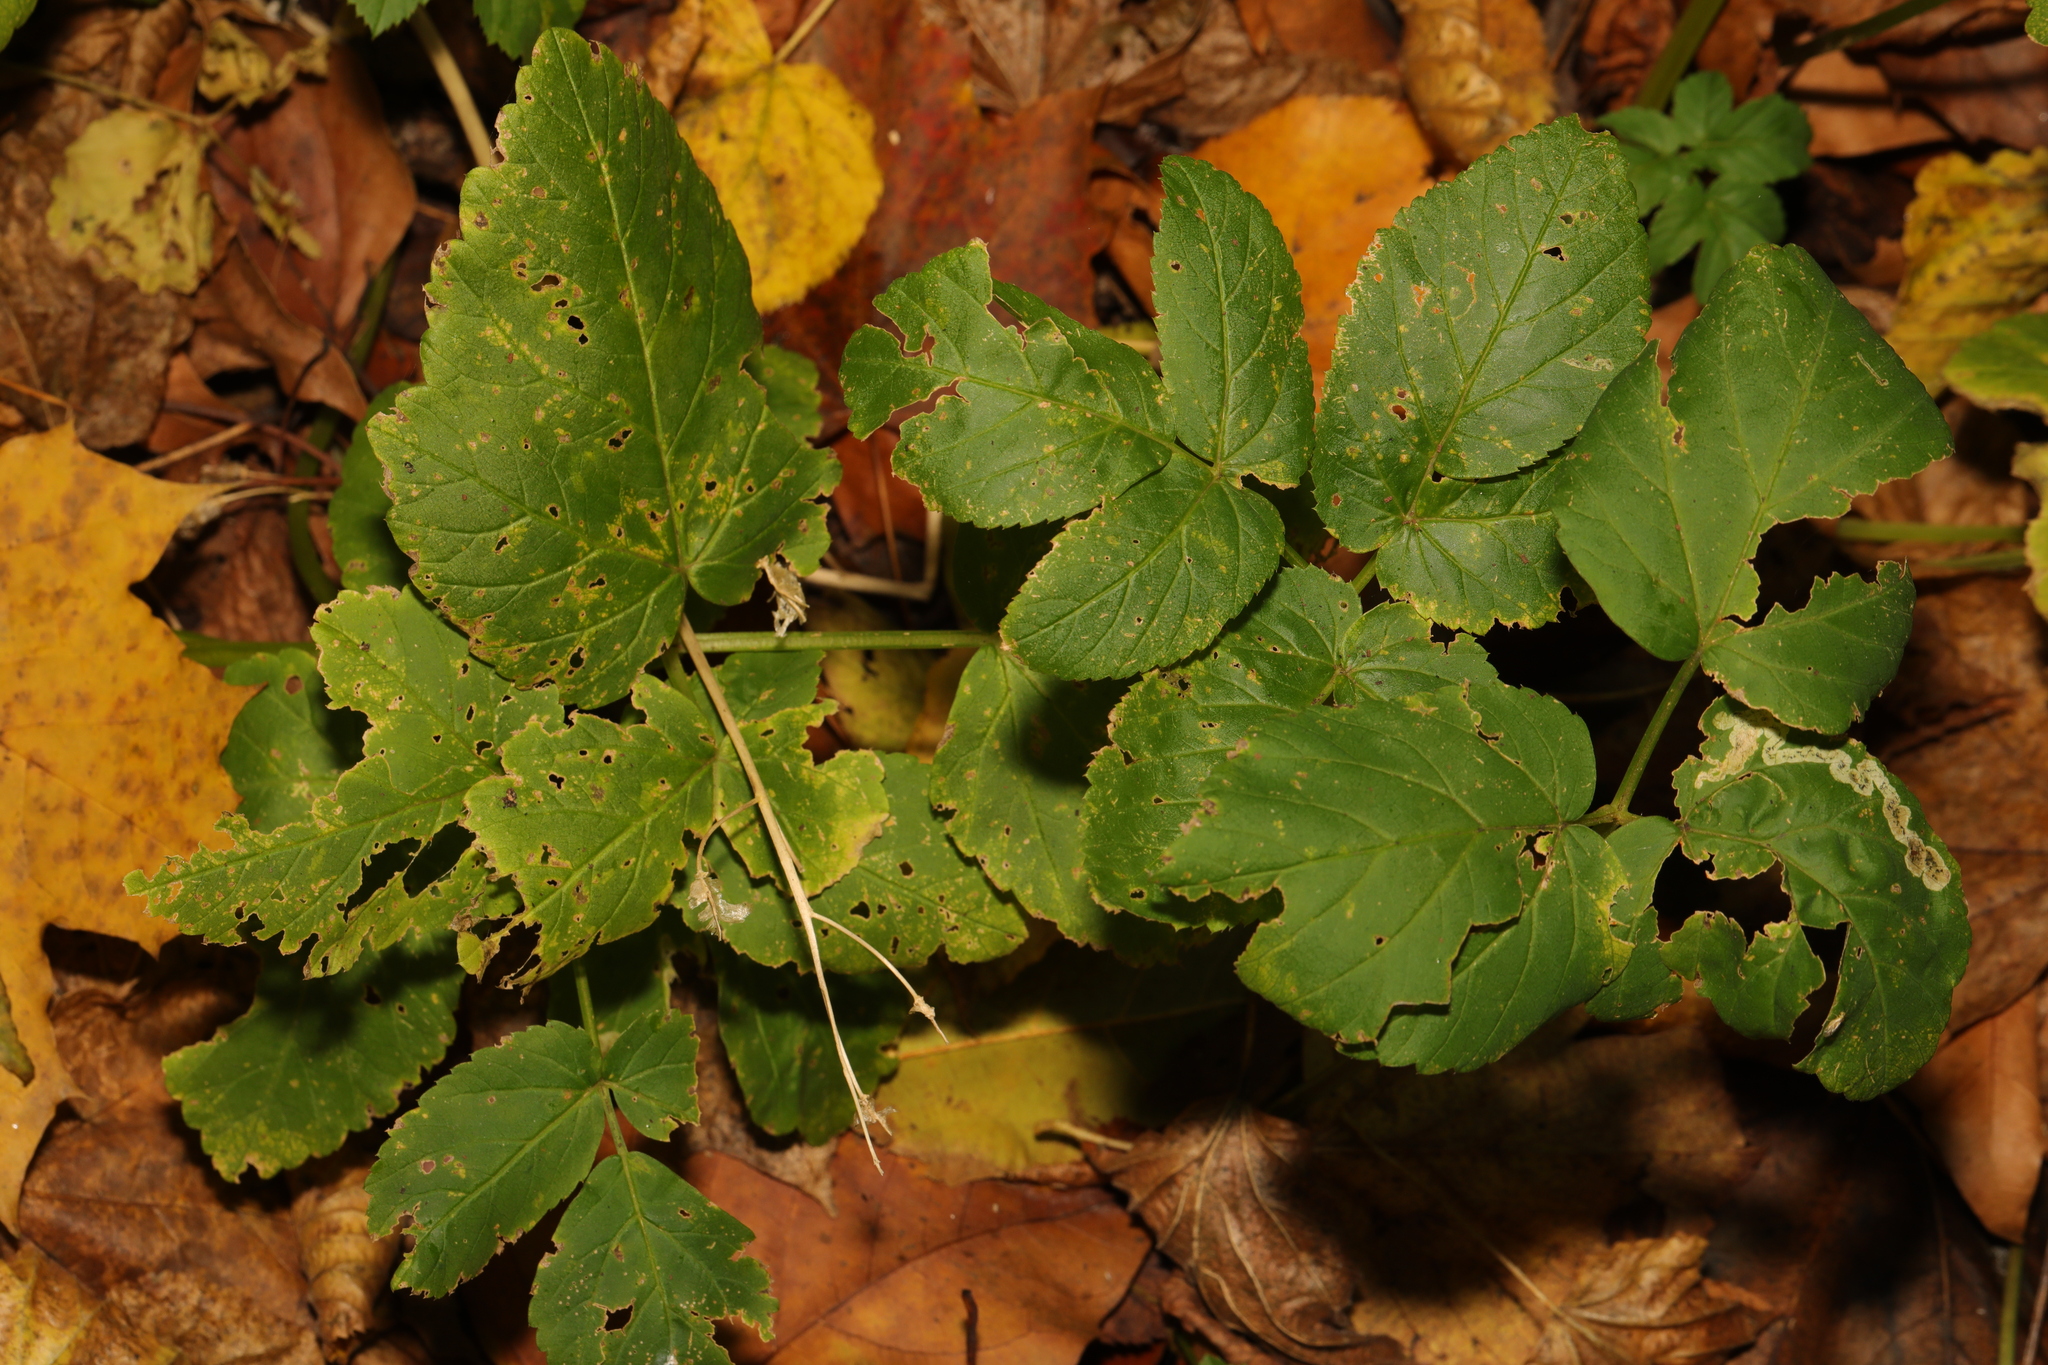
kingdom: Plantae
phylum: Tracheophyta
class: Magnoliopsida
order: Apiales
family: Apiaceae
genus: Aegopodium
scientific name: Aegopodium podagraria
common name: Ground-elder
